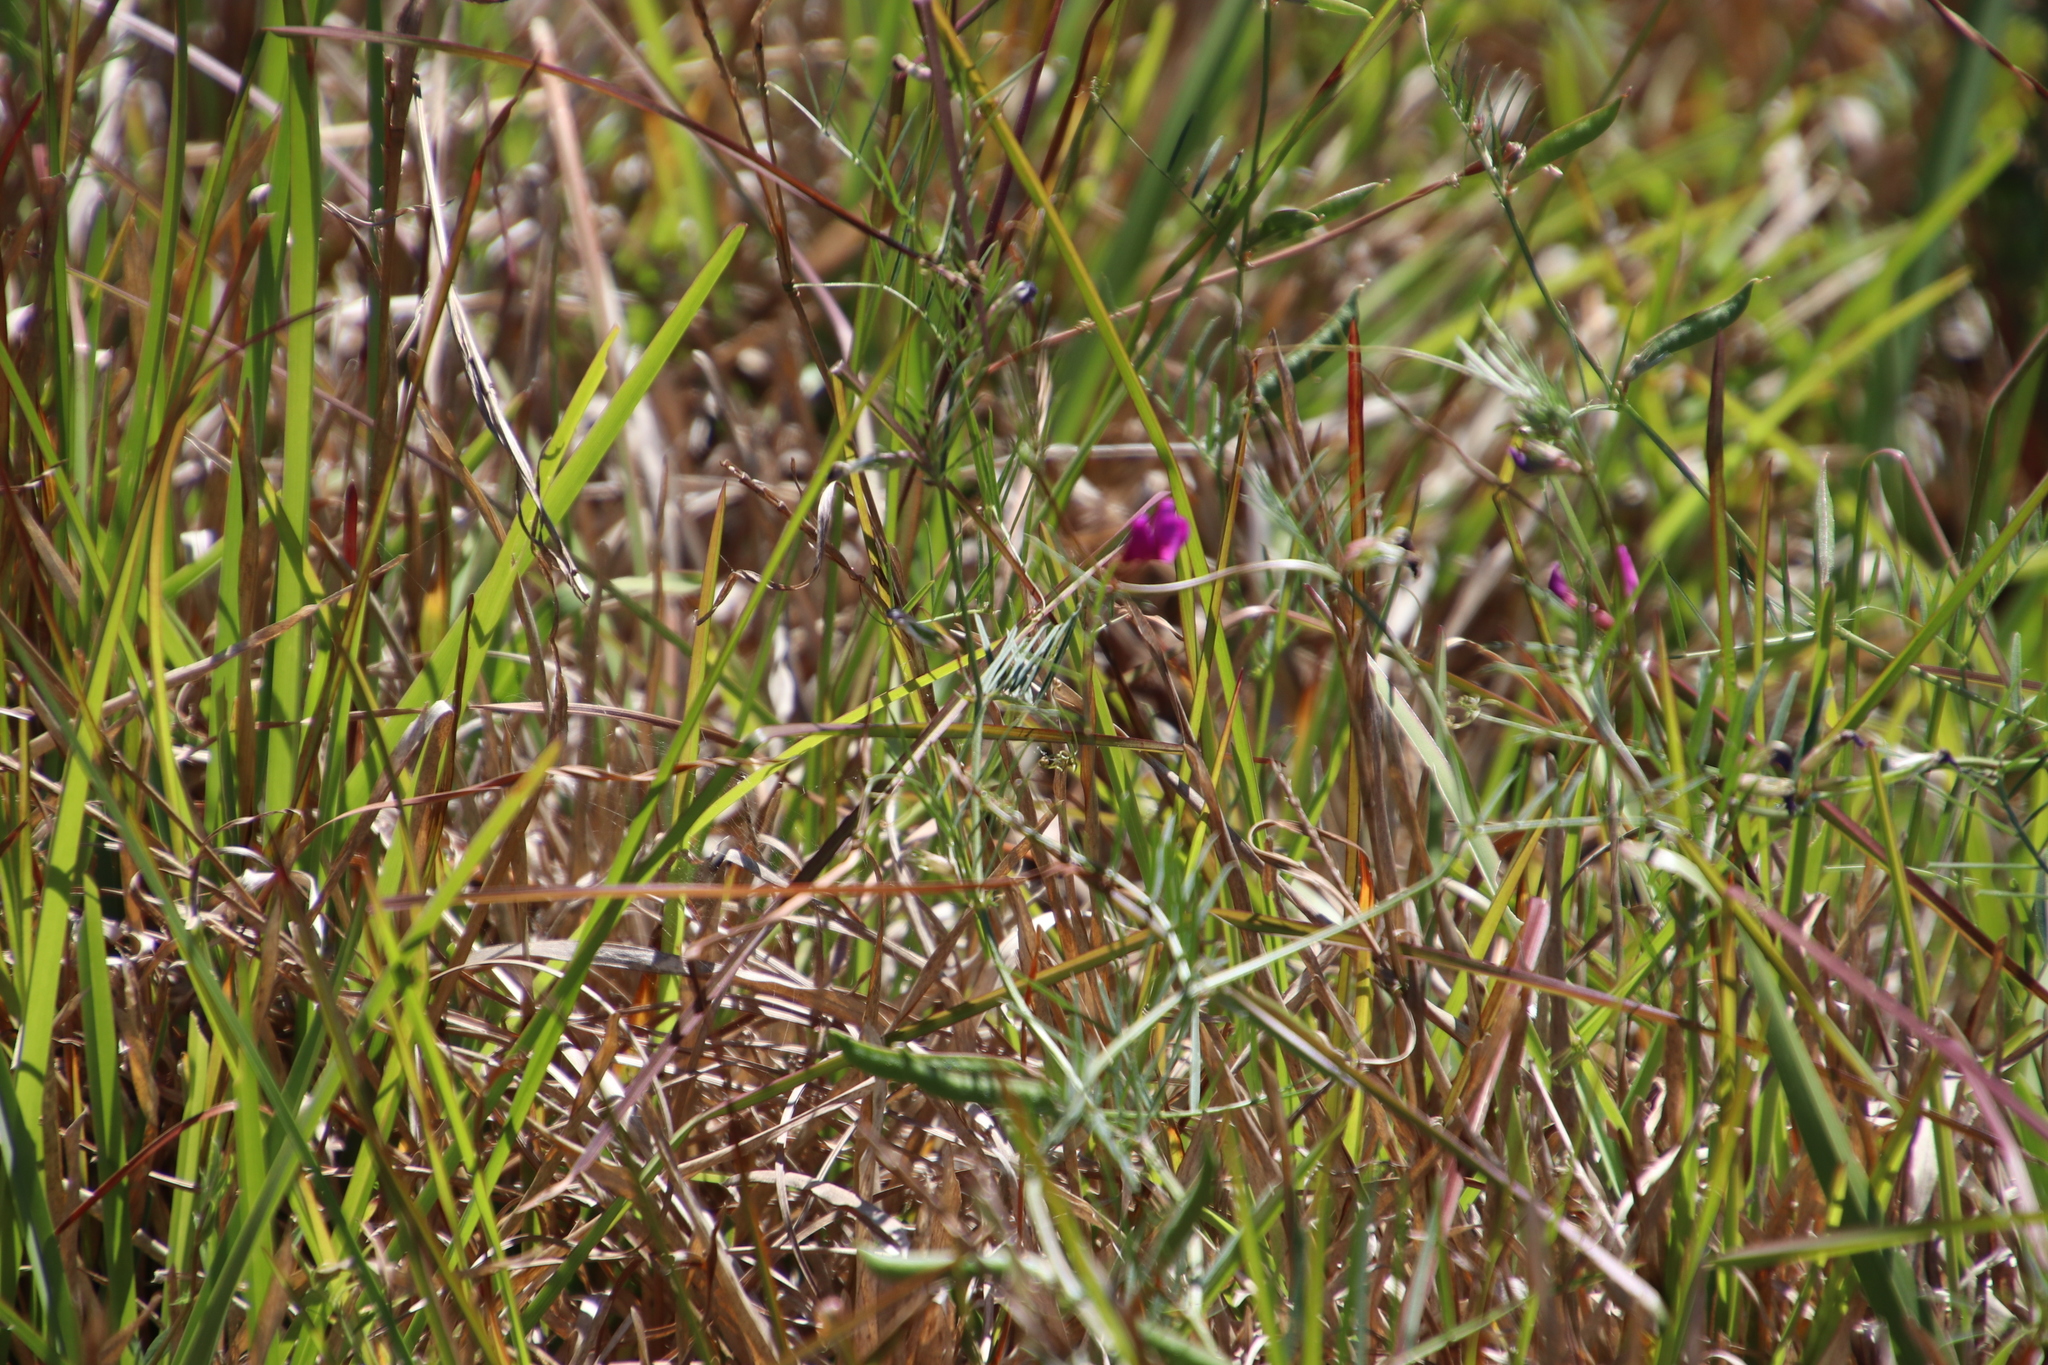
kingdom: Plantae
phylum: Tracheophyta
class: Magnoliopsida
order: Fabales
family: Fabaceae
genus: Vicia
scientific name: Vicia sativa
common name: Garden vetch
